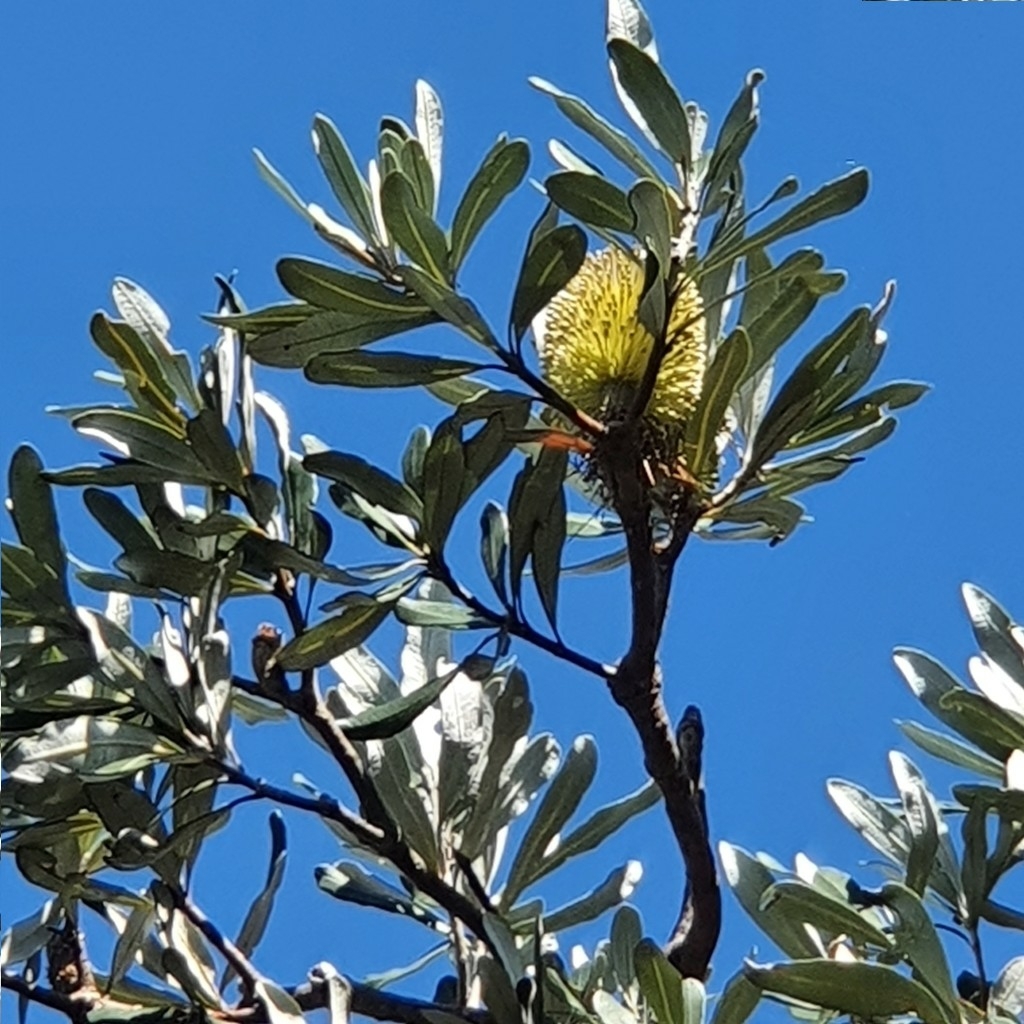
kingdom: Plantae
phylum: Tracheophyta
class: Magnoliopsida
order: Proteales
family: Proteaceae
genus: Banksia
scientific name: Banksia integrifolia
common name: White-honeysuckle
